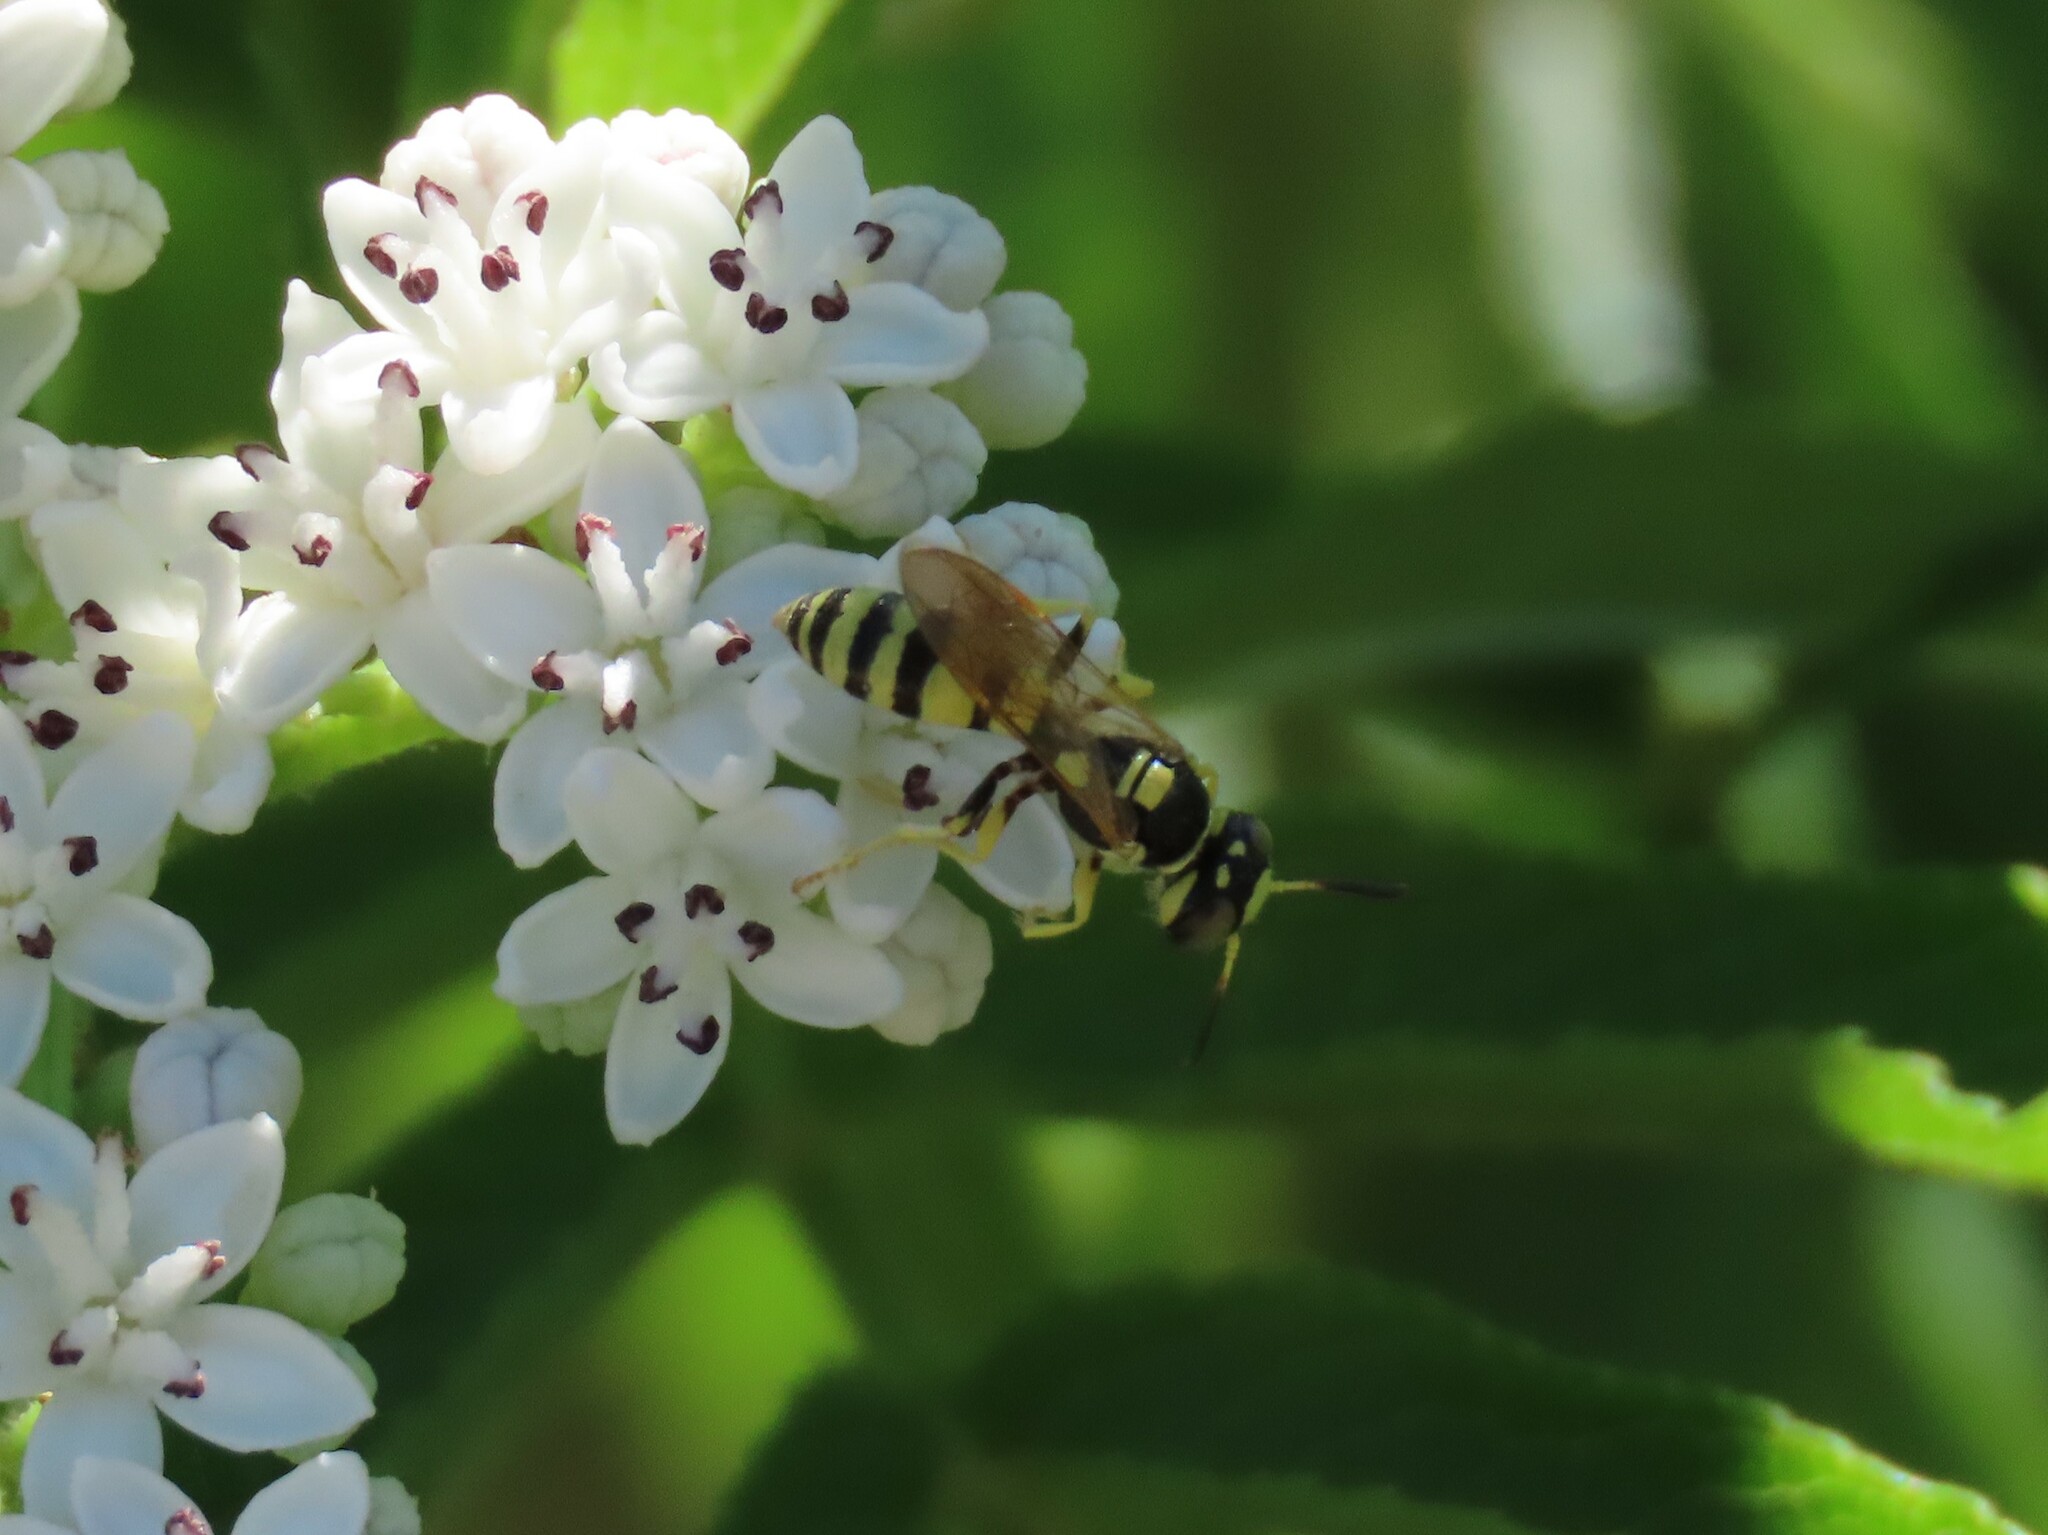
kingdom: Animalia
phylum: Arthropoda
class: Insecta
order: Hymenoptera
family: Crabronidae
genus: Philanthus
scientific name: Philanthus pulchellus
